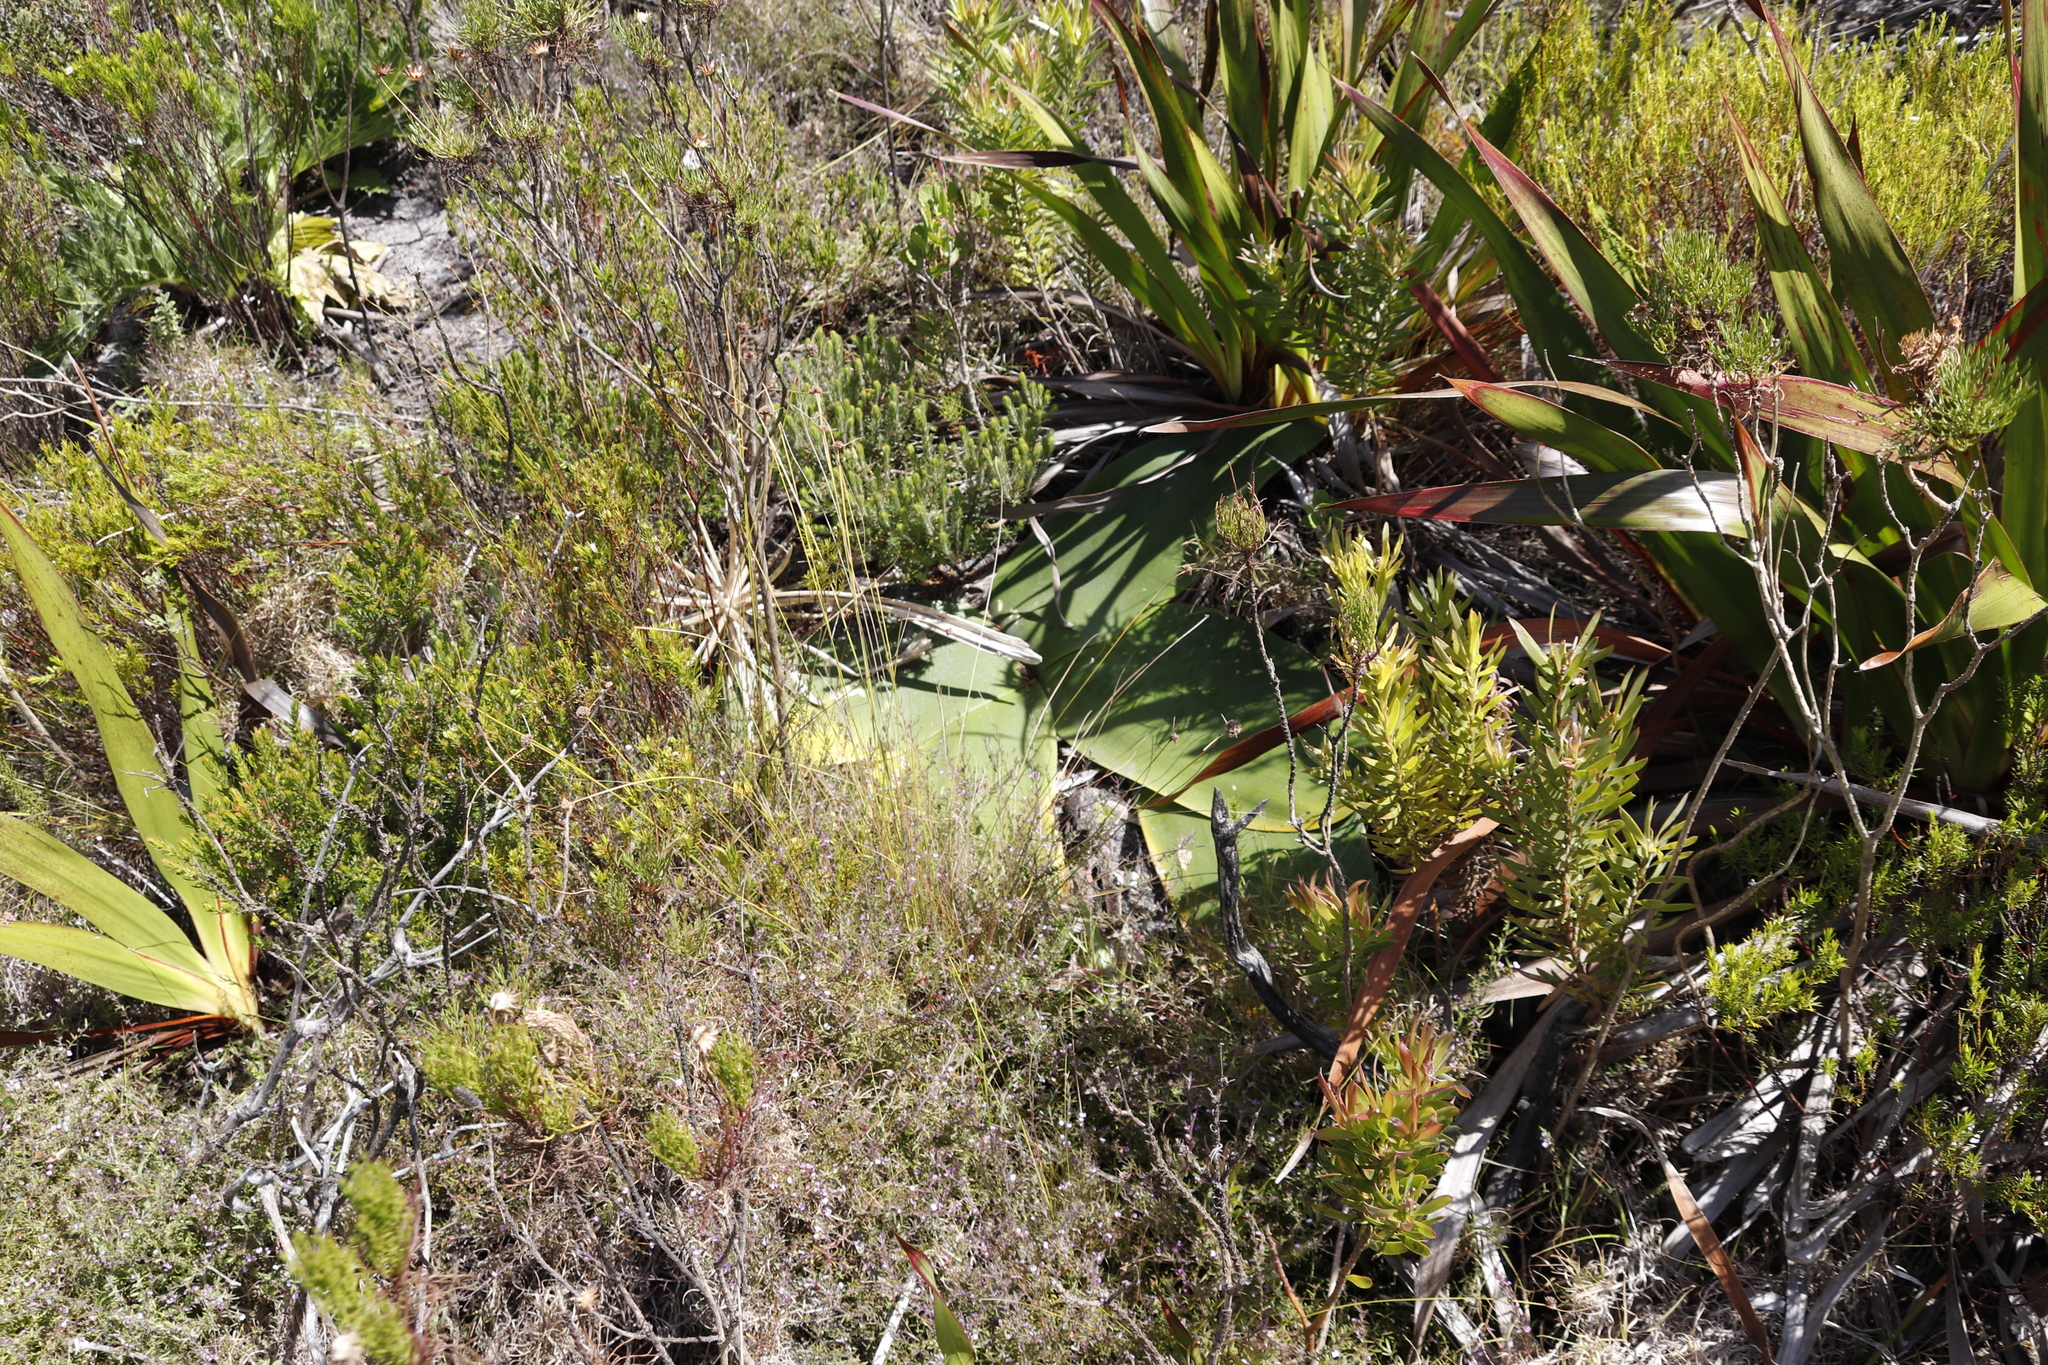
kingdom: Plantae
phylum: Tracheophyta
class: Liliopsida
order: Asparagales
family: Amaryllidaceae
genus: Brunsvigia
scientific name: Brunsvigia orientalis
